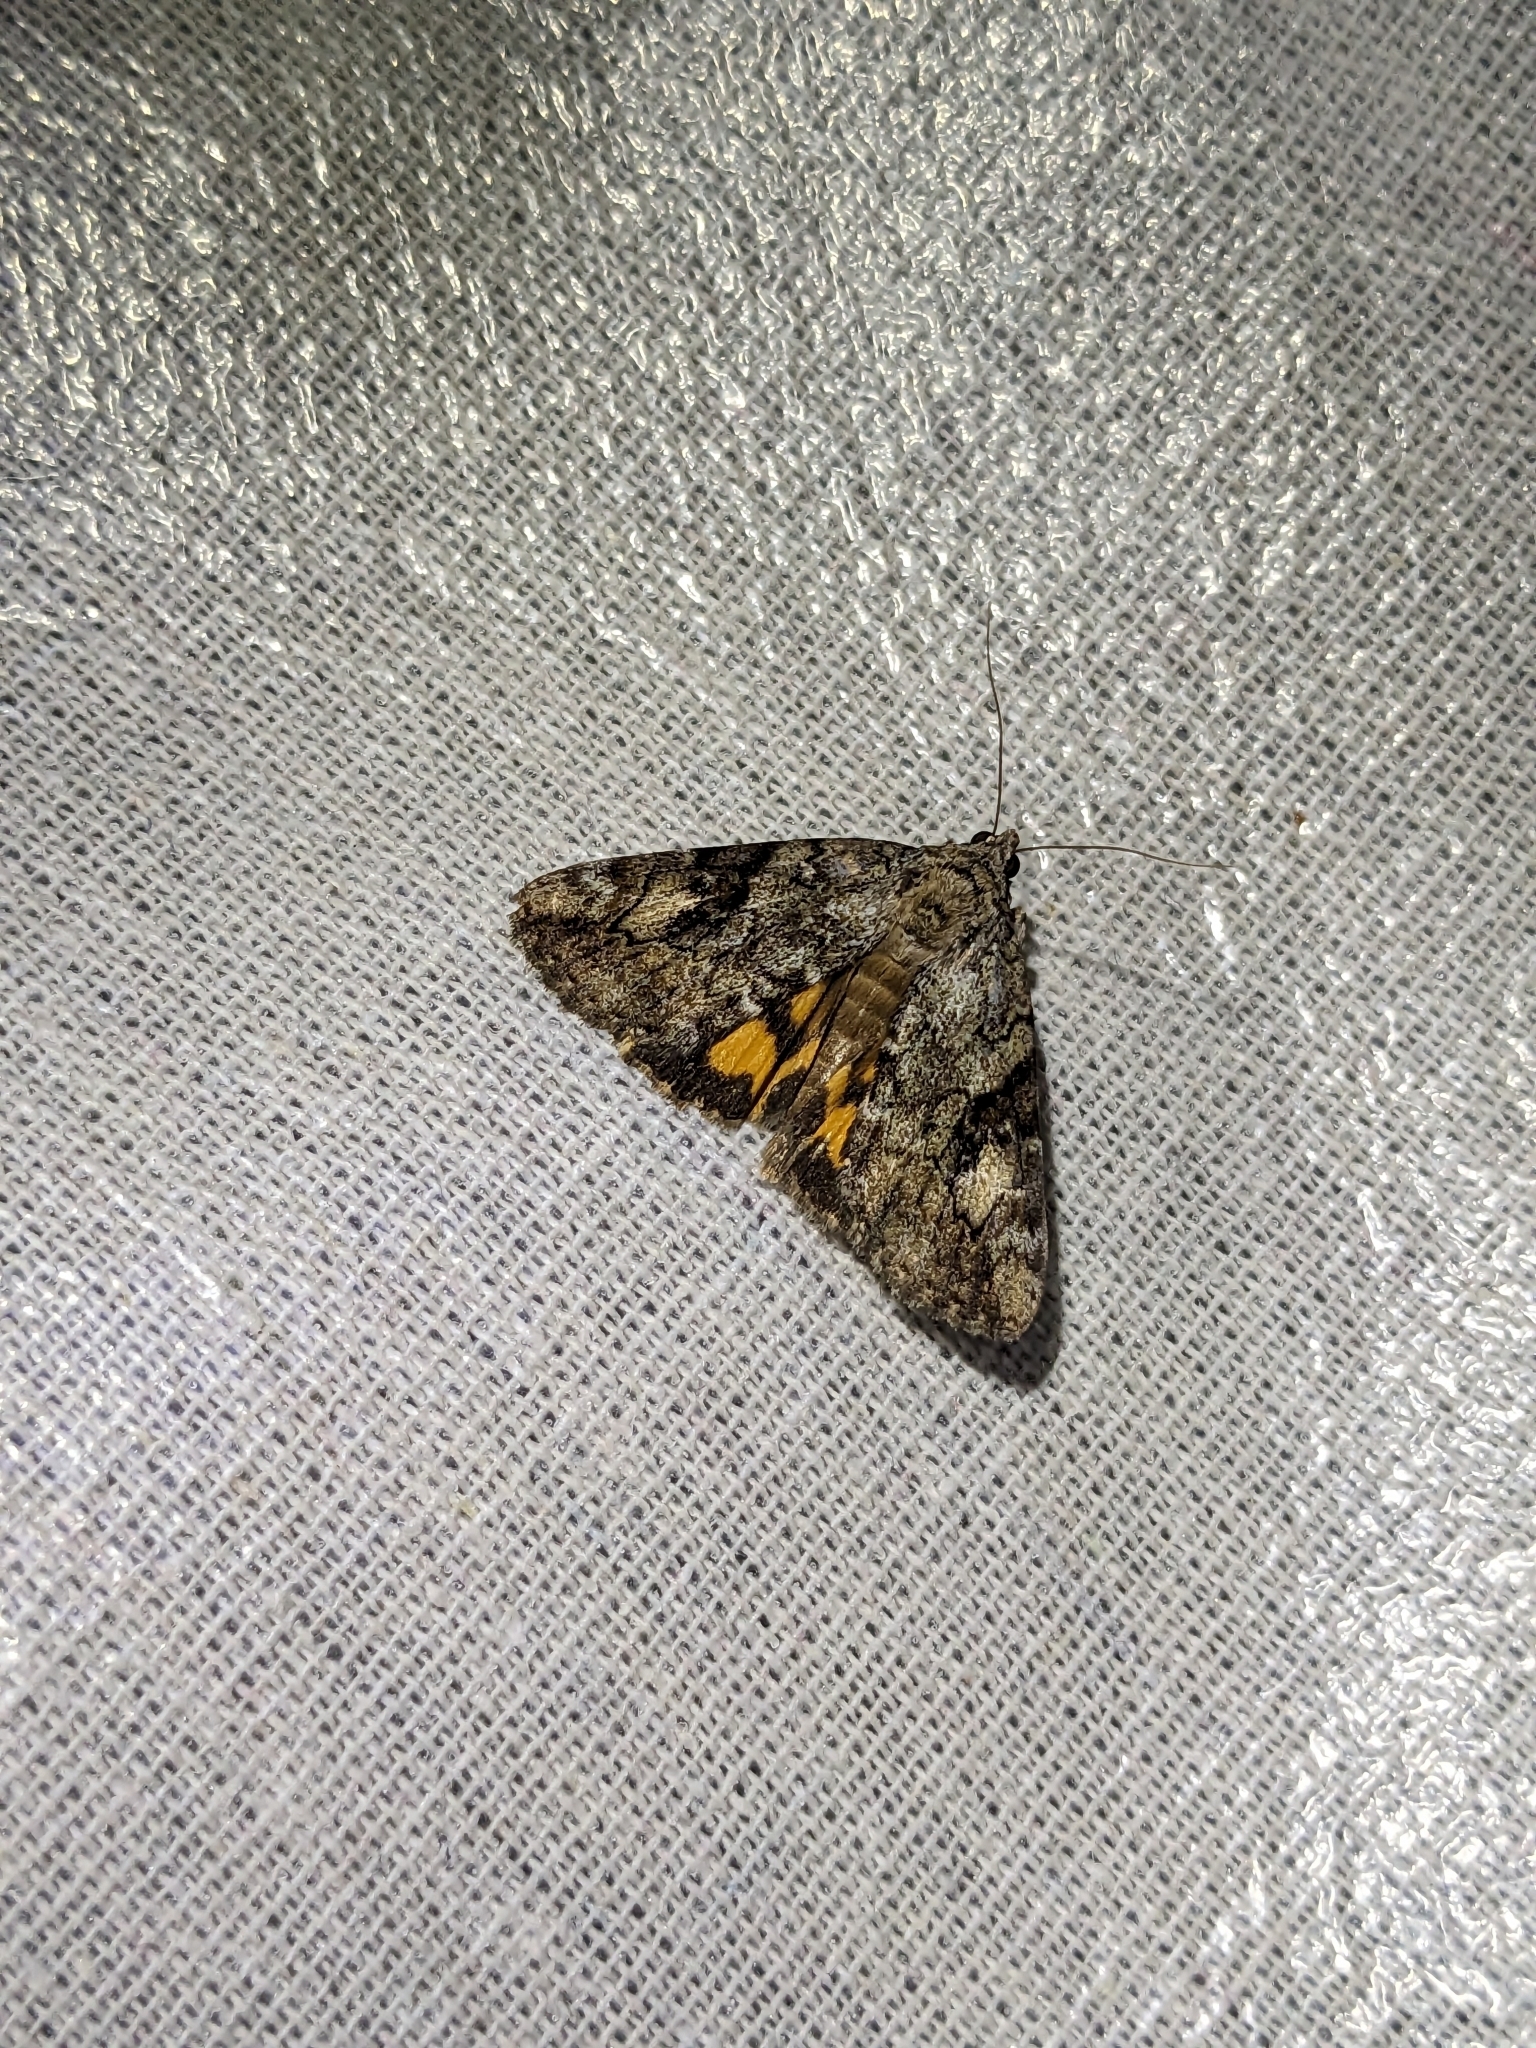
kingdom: Animalia
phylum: Arthropoda
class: Insecta
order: Lepidoptera
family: Erebidae
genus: Catocala
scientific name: Catocala micronympha
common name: Little nymph underwing
